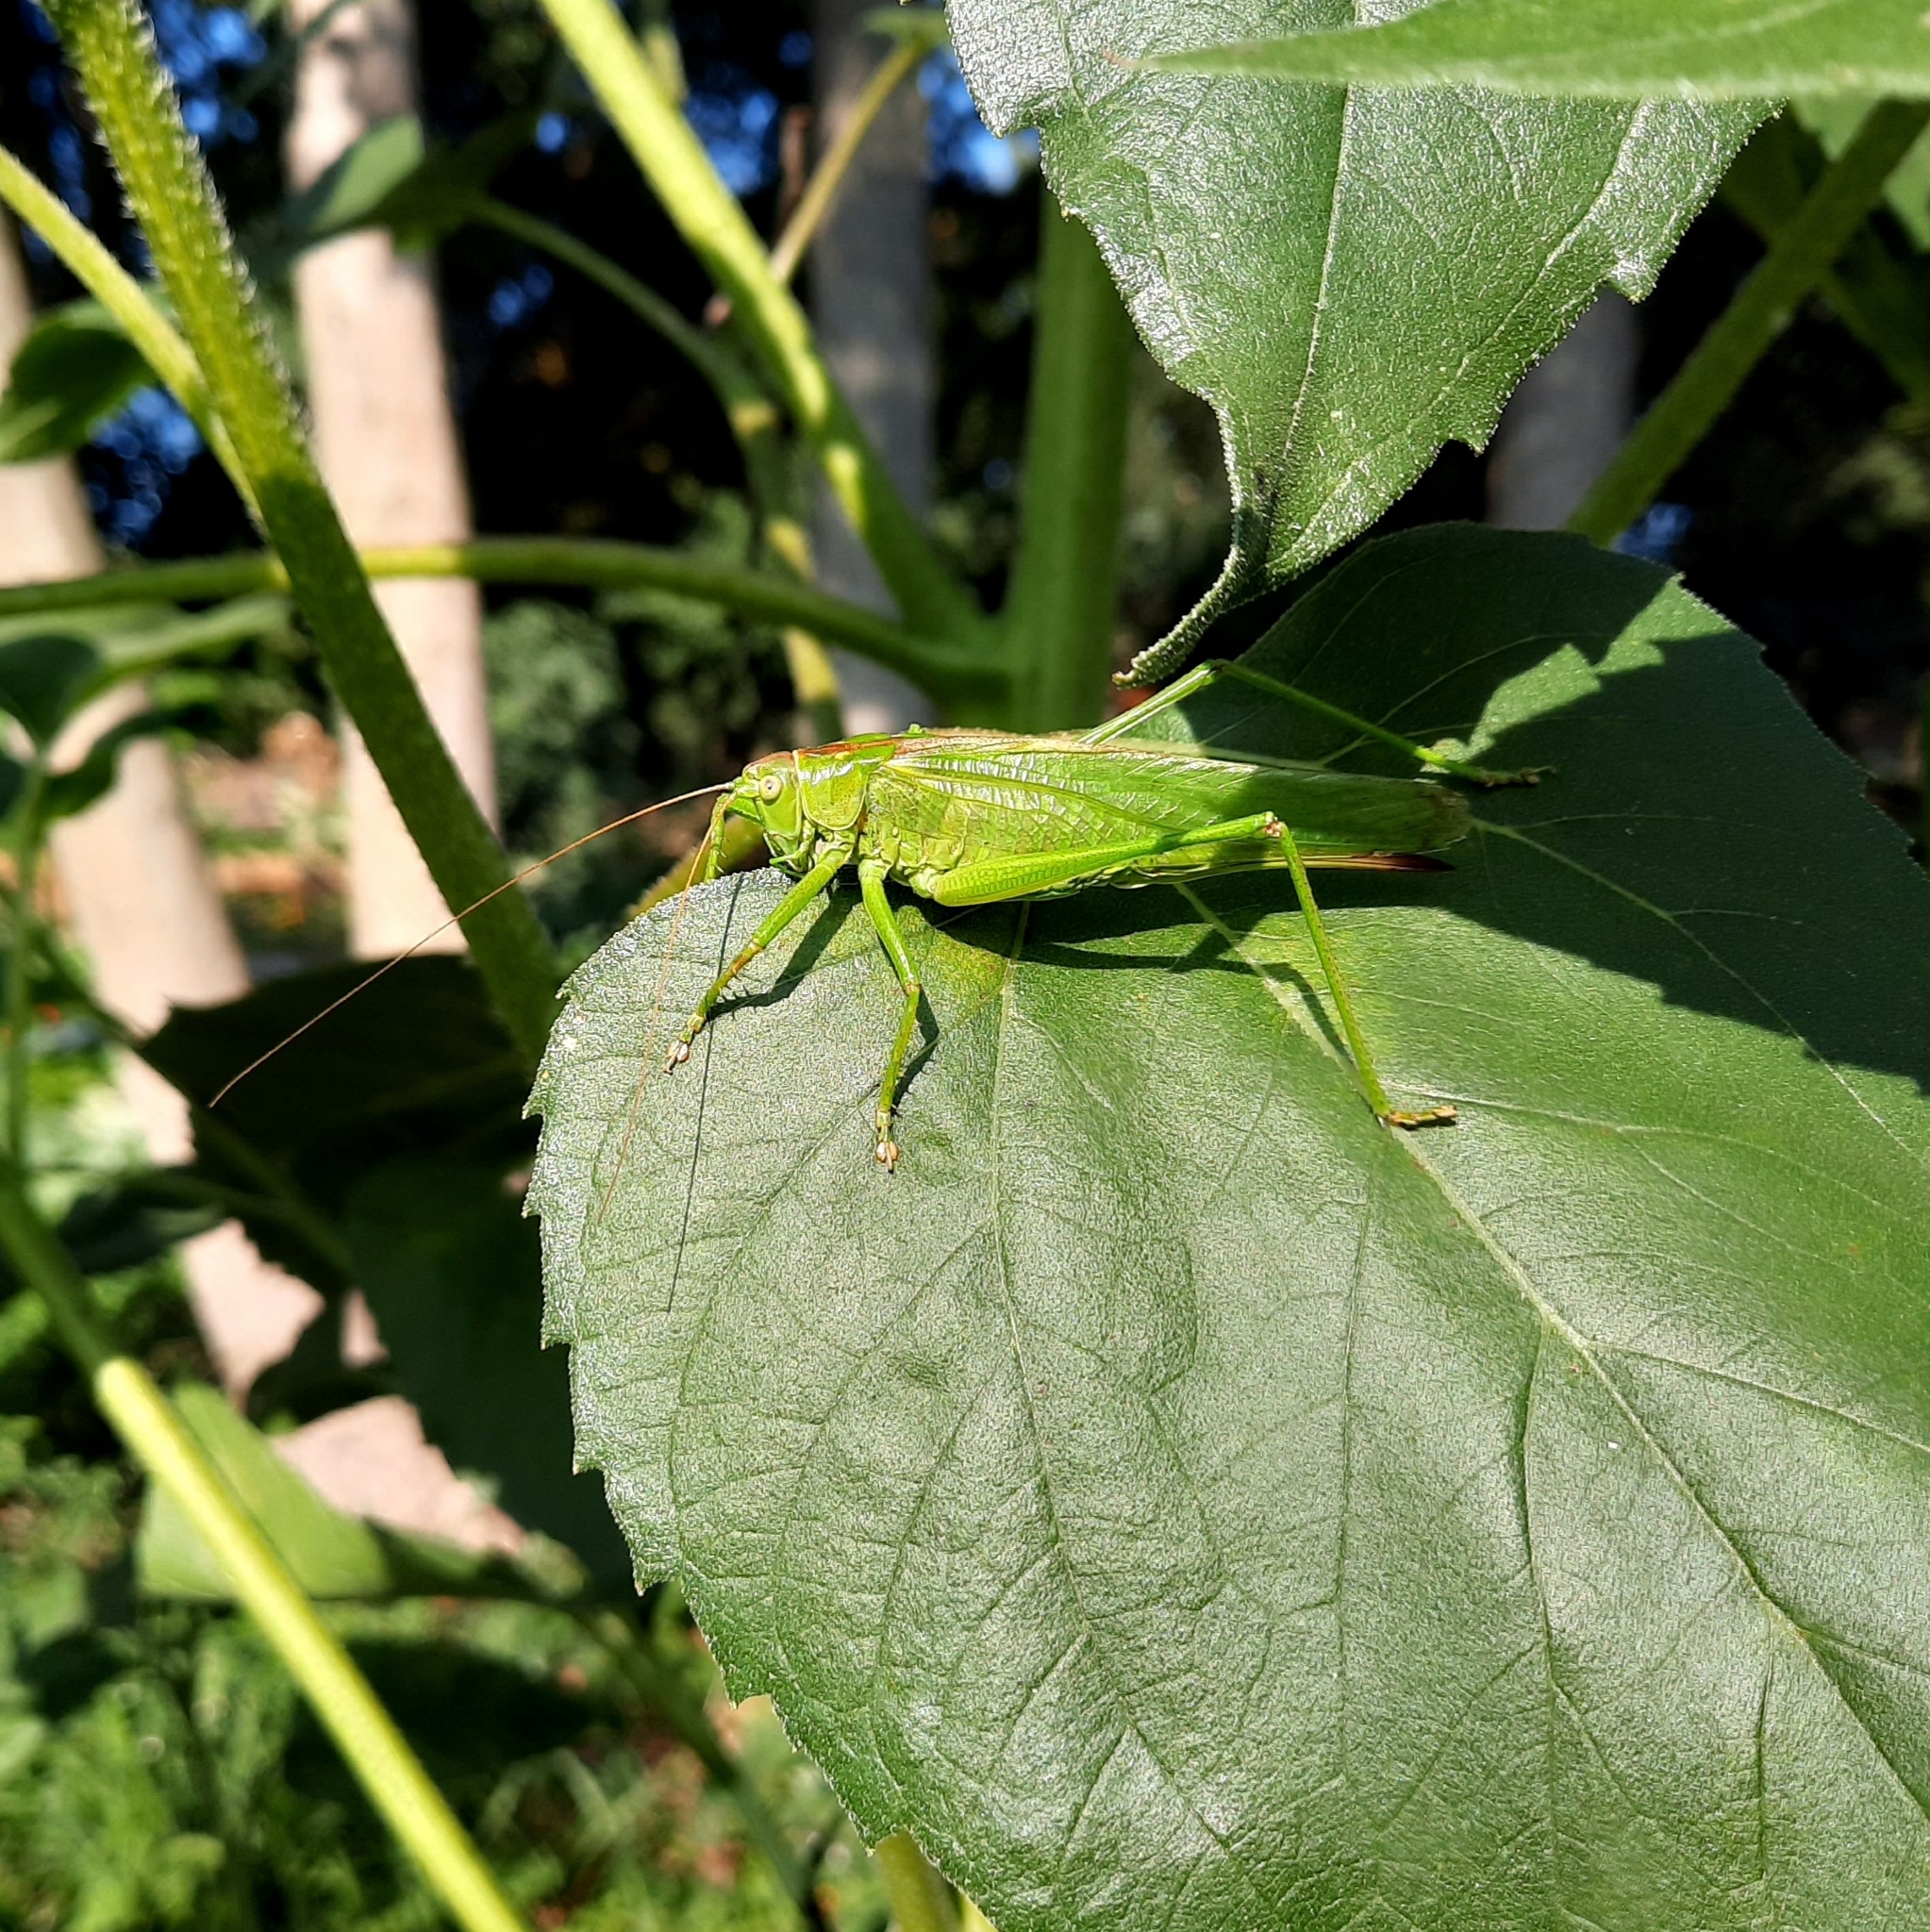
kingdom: Animalia
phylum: Arthropoda
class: Insecta
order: Orthoptera
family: Tettigoniidae
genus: Tettigonia
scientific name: Tettigonia viridissima
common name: Great green bush-cricket
